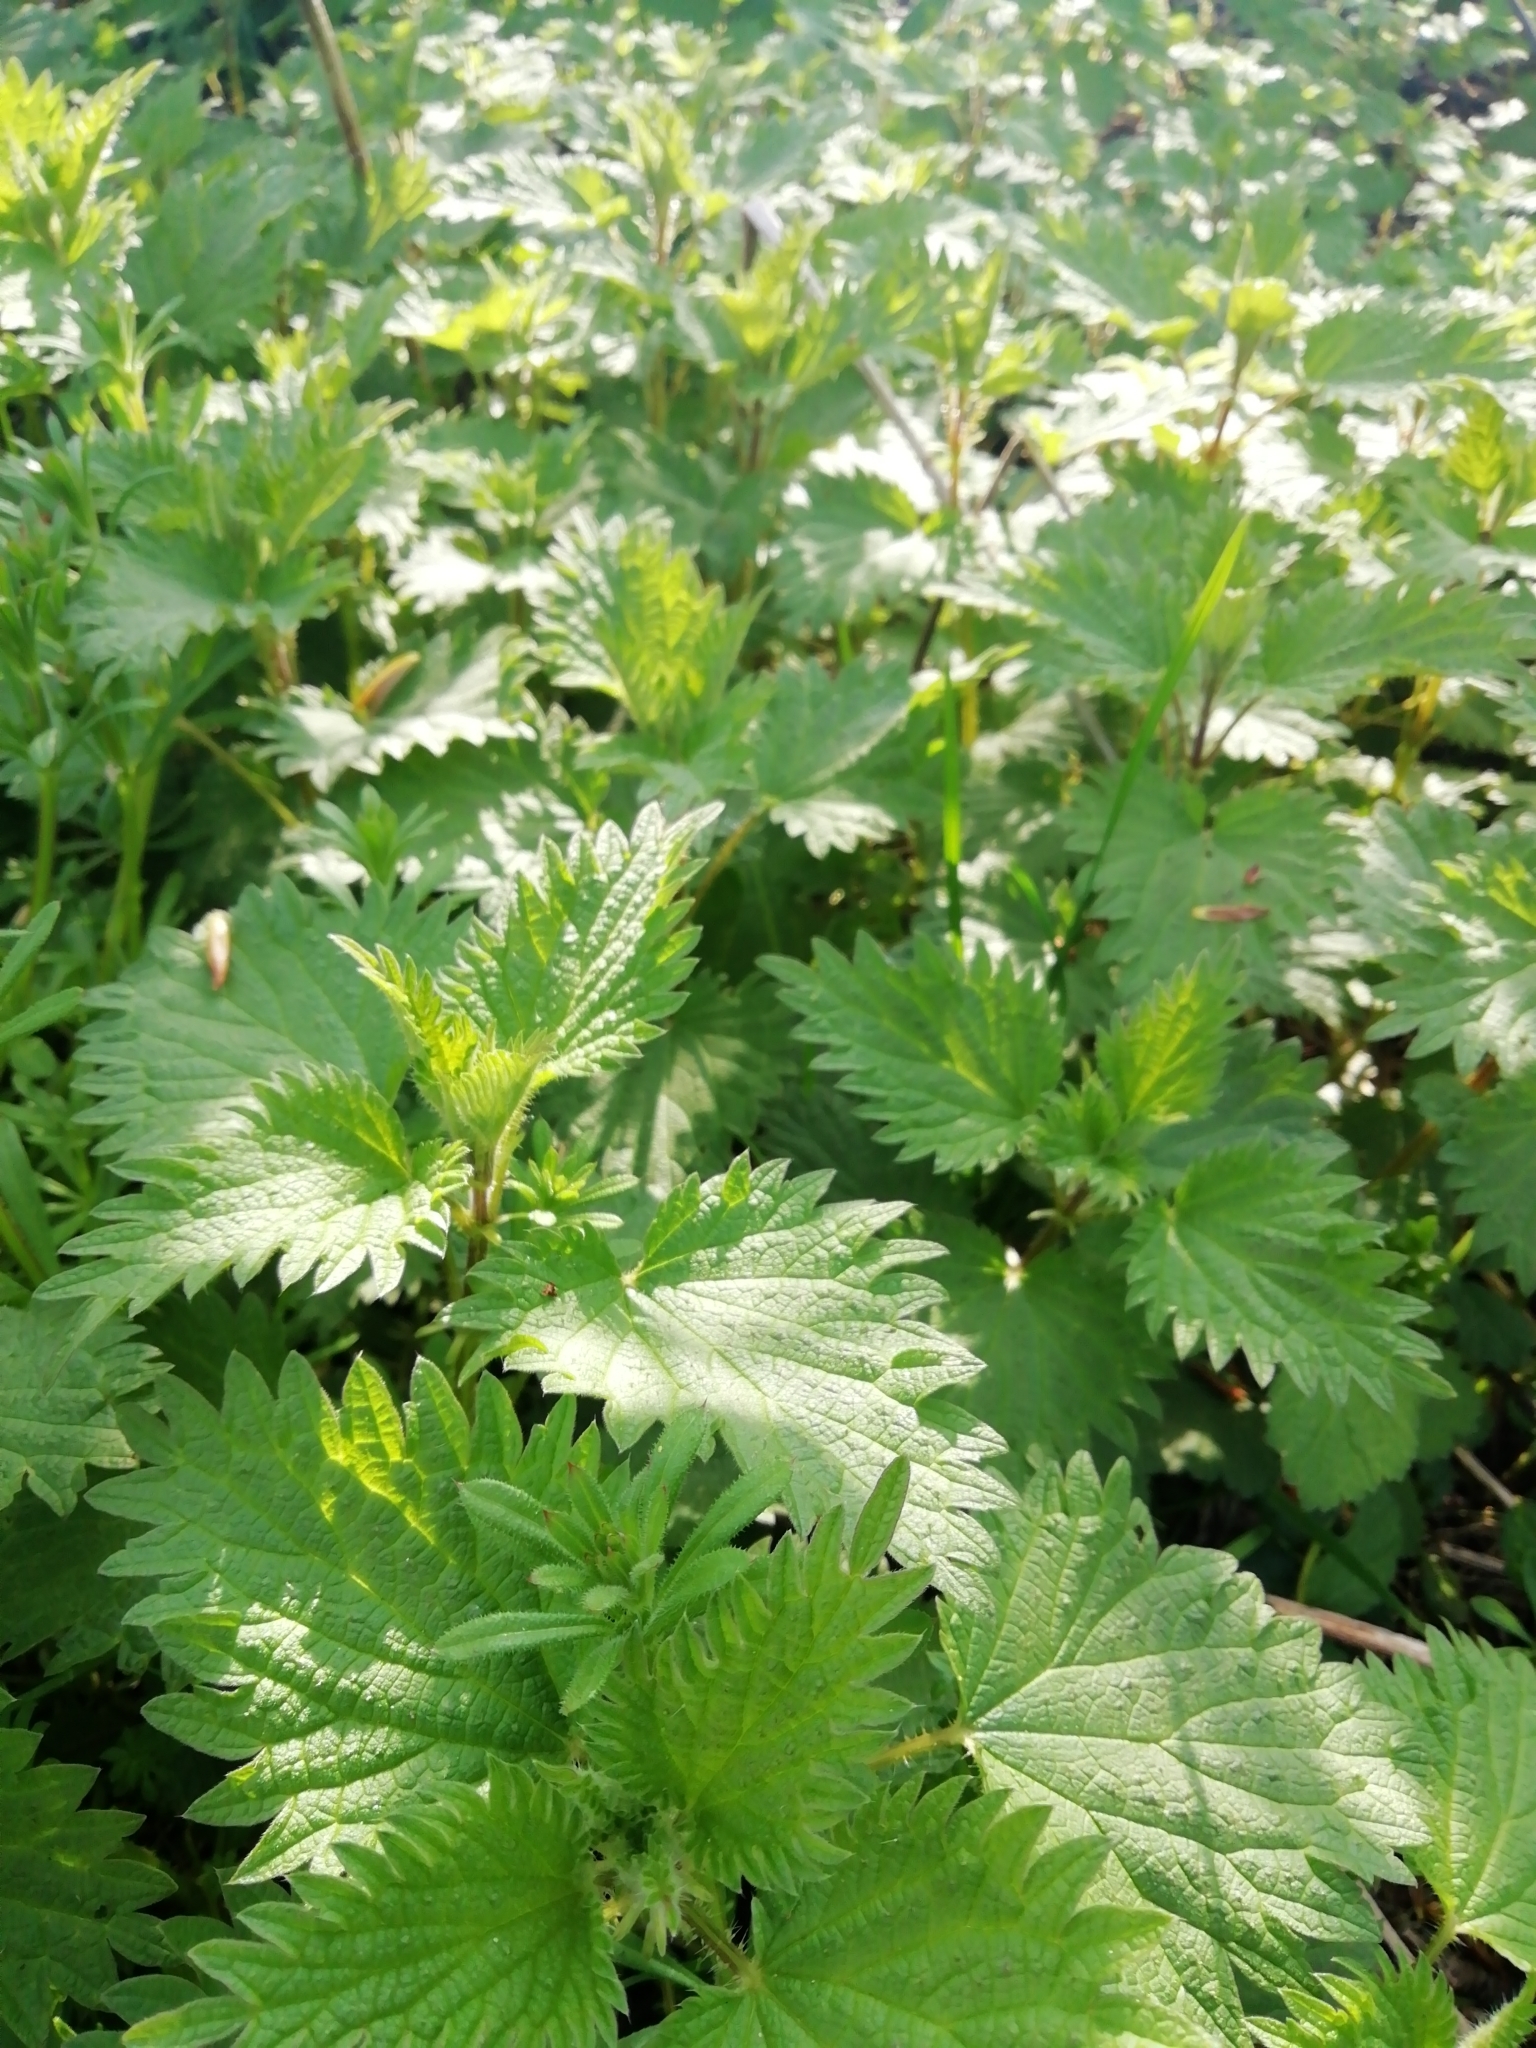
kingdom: Plantae
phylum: Tracheophyta
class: Magnoliopsida
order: Rosales
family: Urticaceae
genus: Urtica
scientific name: Urtica dioica
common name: Common nettle
